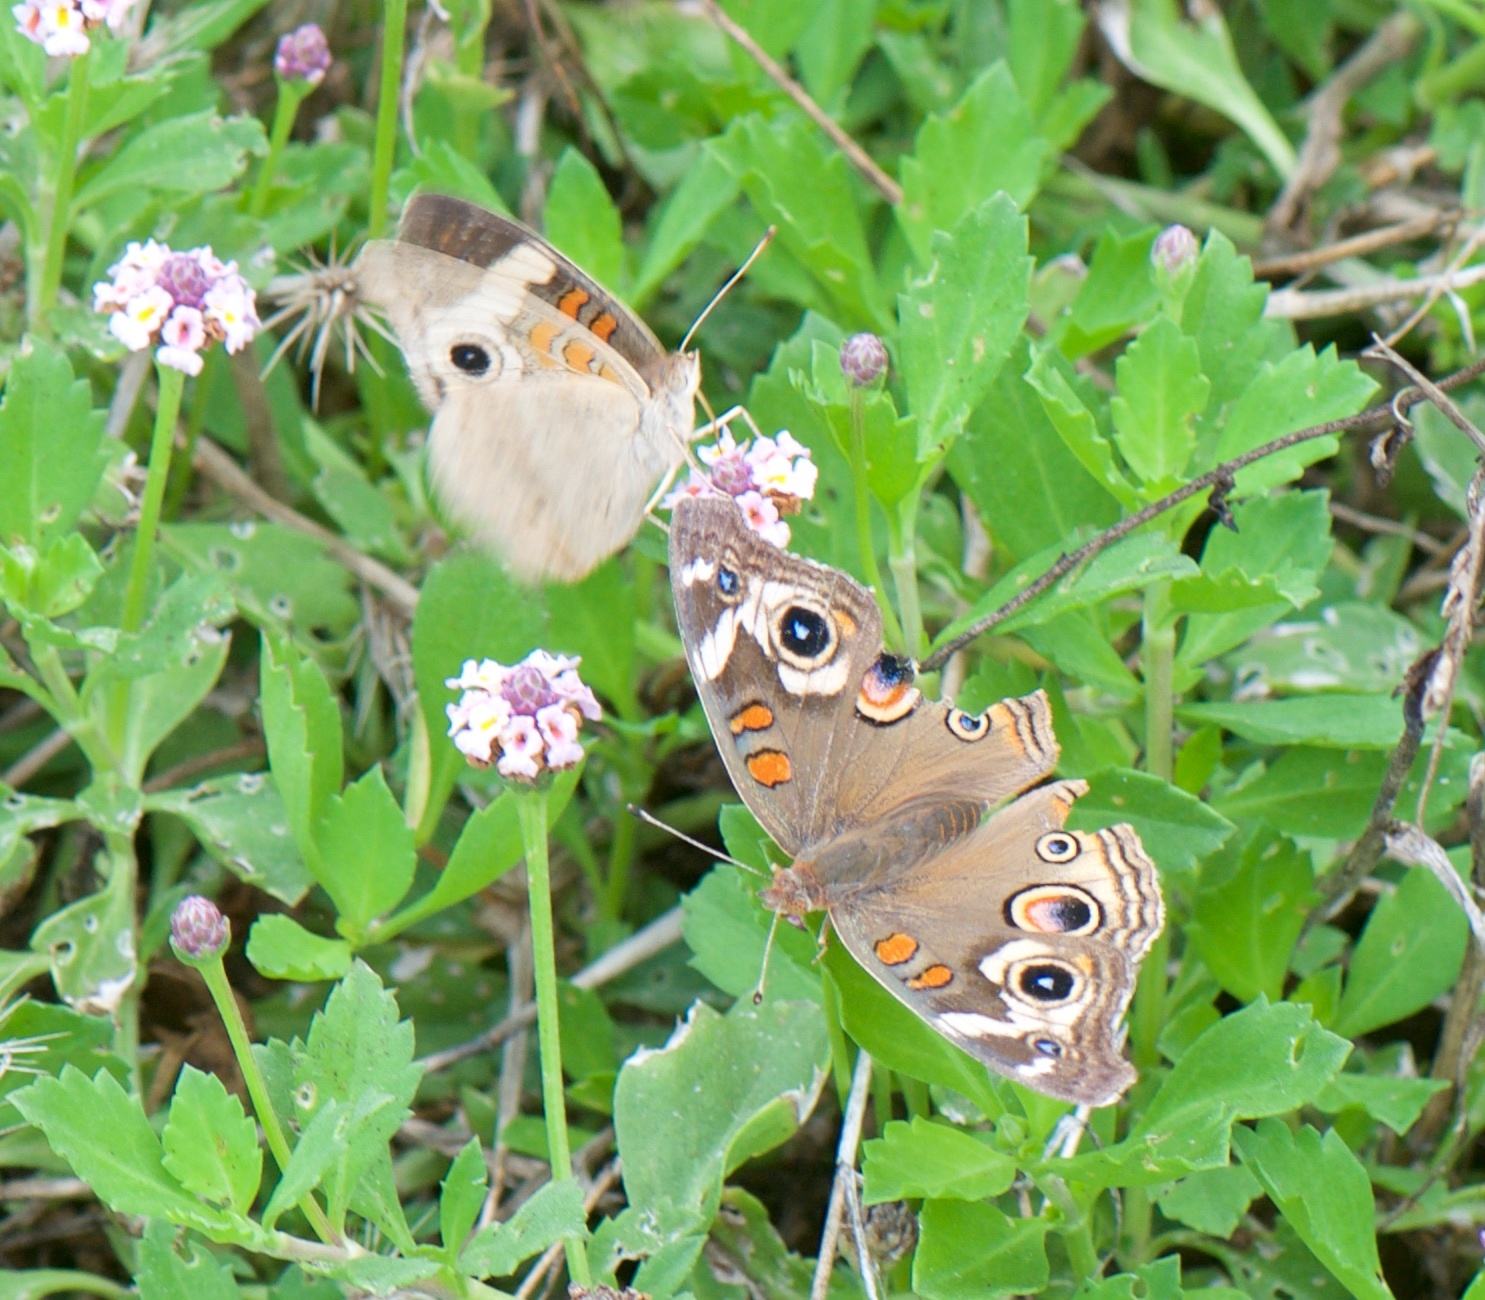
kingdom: Animalia
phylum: Arthropoda
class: Insecta
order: Lepidoptera
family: Nymphalidae
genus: Junonia
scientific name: Junonia grisea
